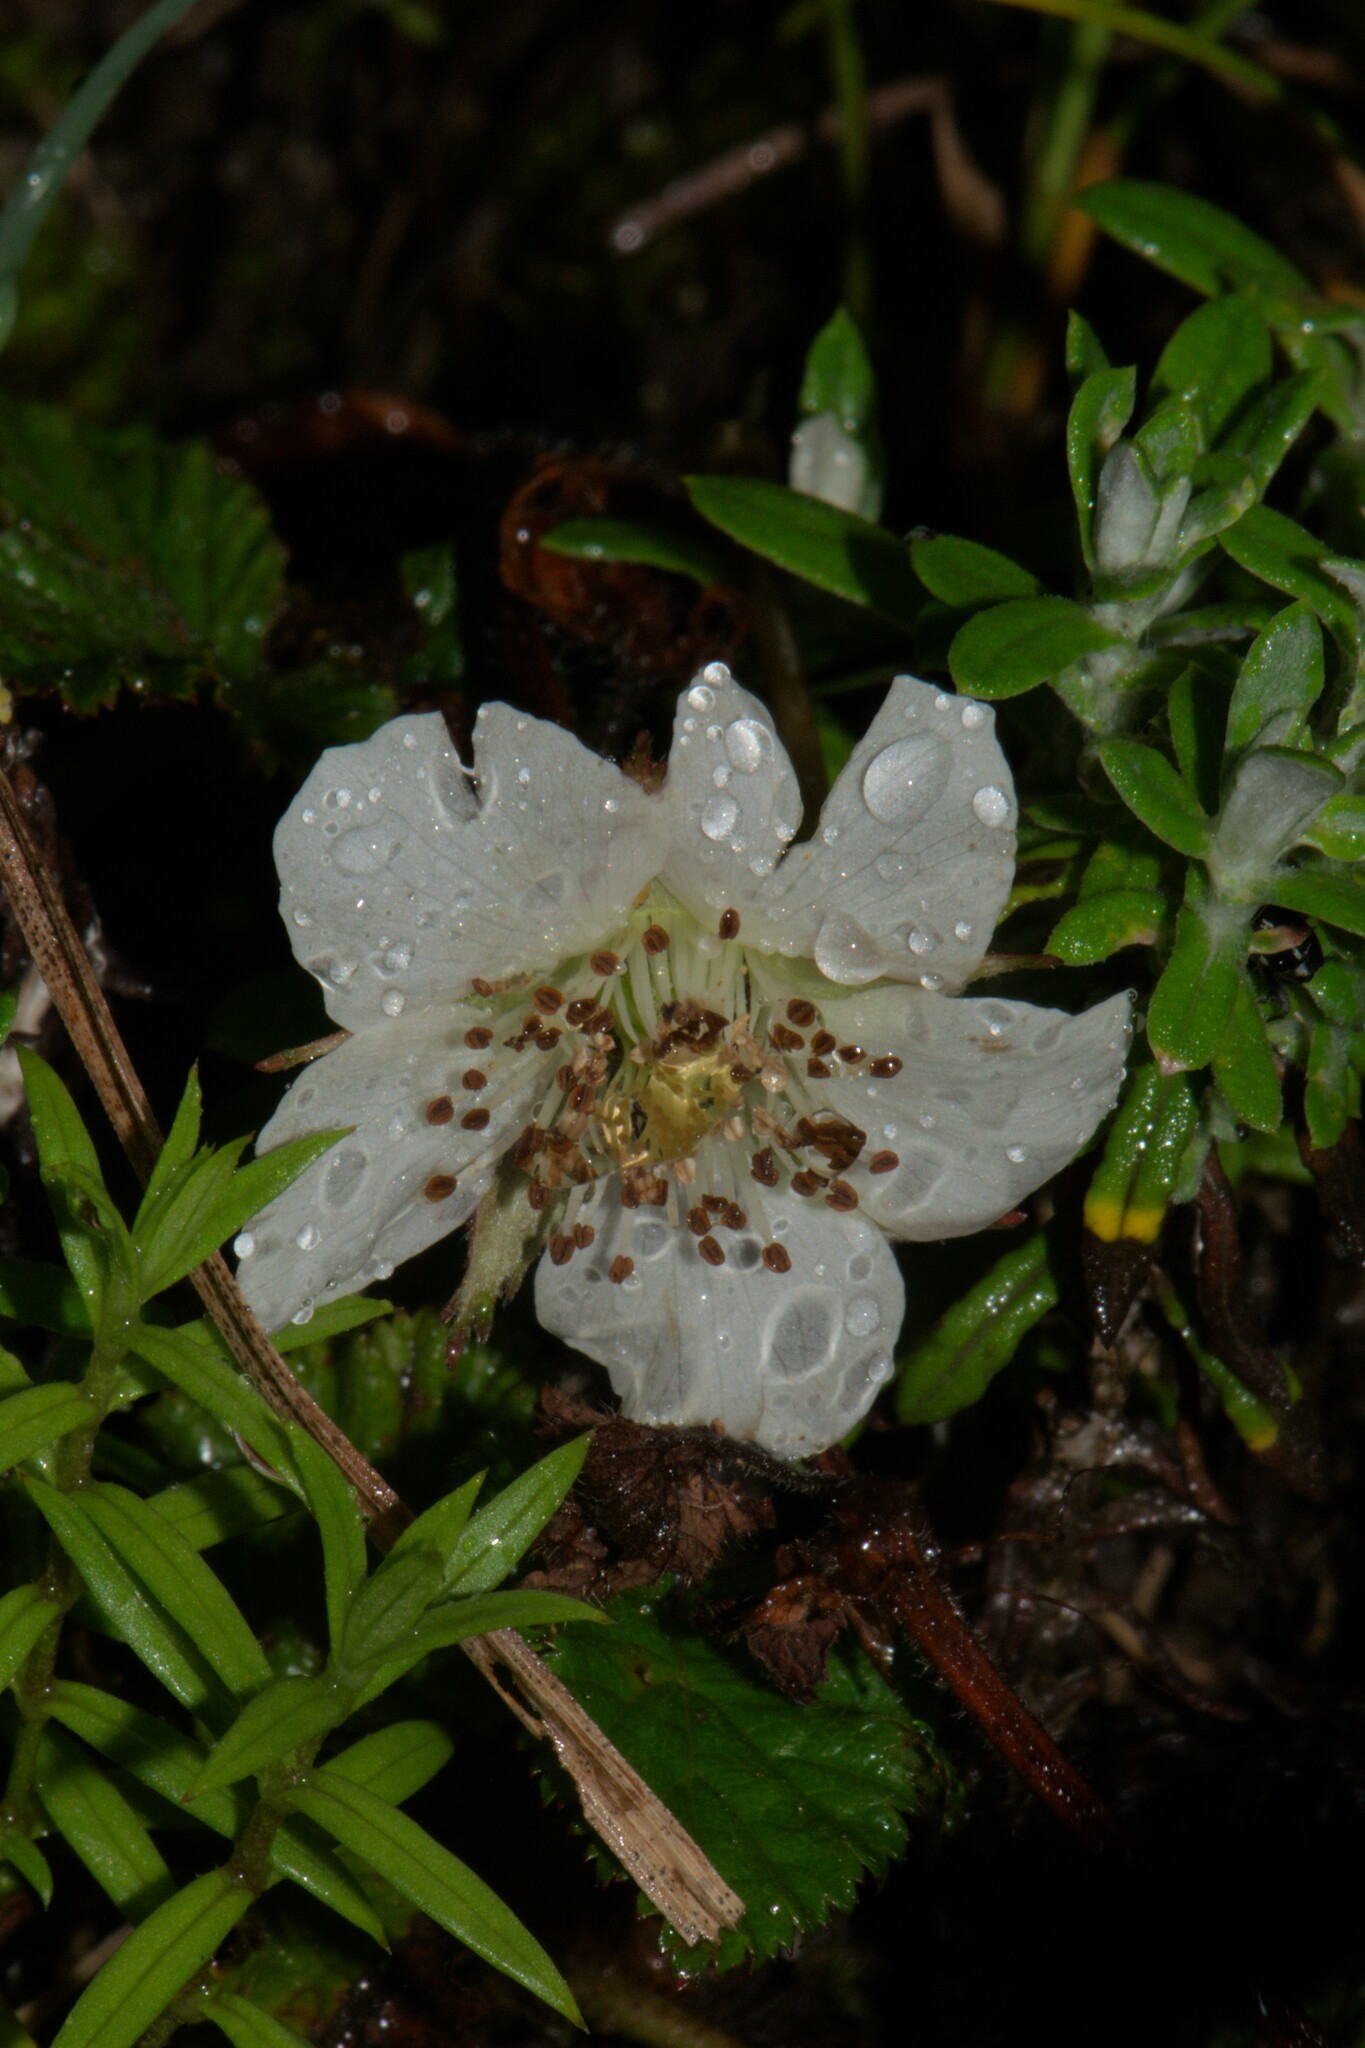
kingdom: Plantae
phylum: Tracheophyta
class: Magnoliopsida
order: Rosales
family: Rosaceae
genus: Rubus
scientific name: Rubus nepalensis
